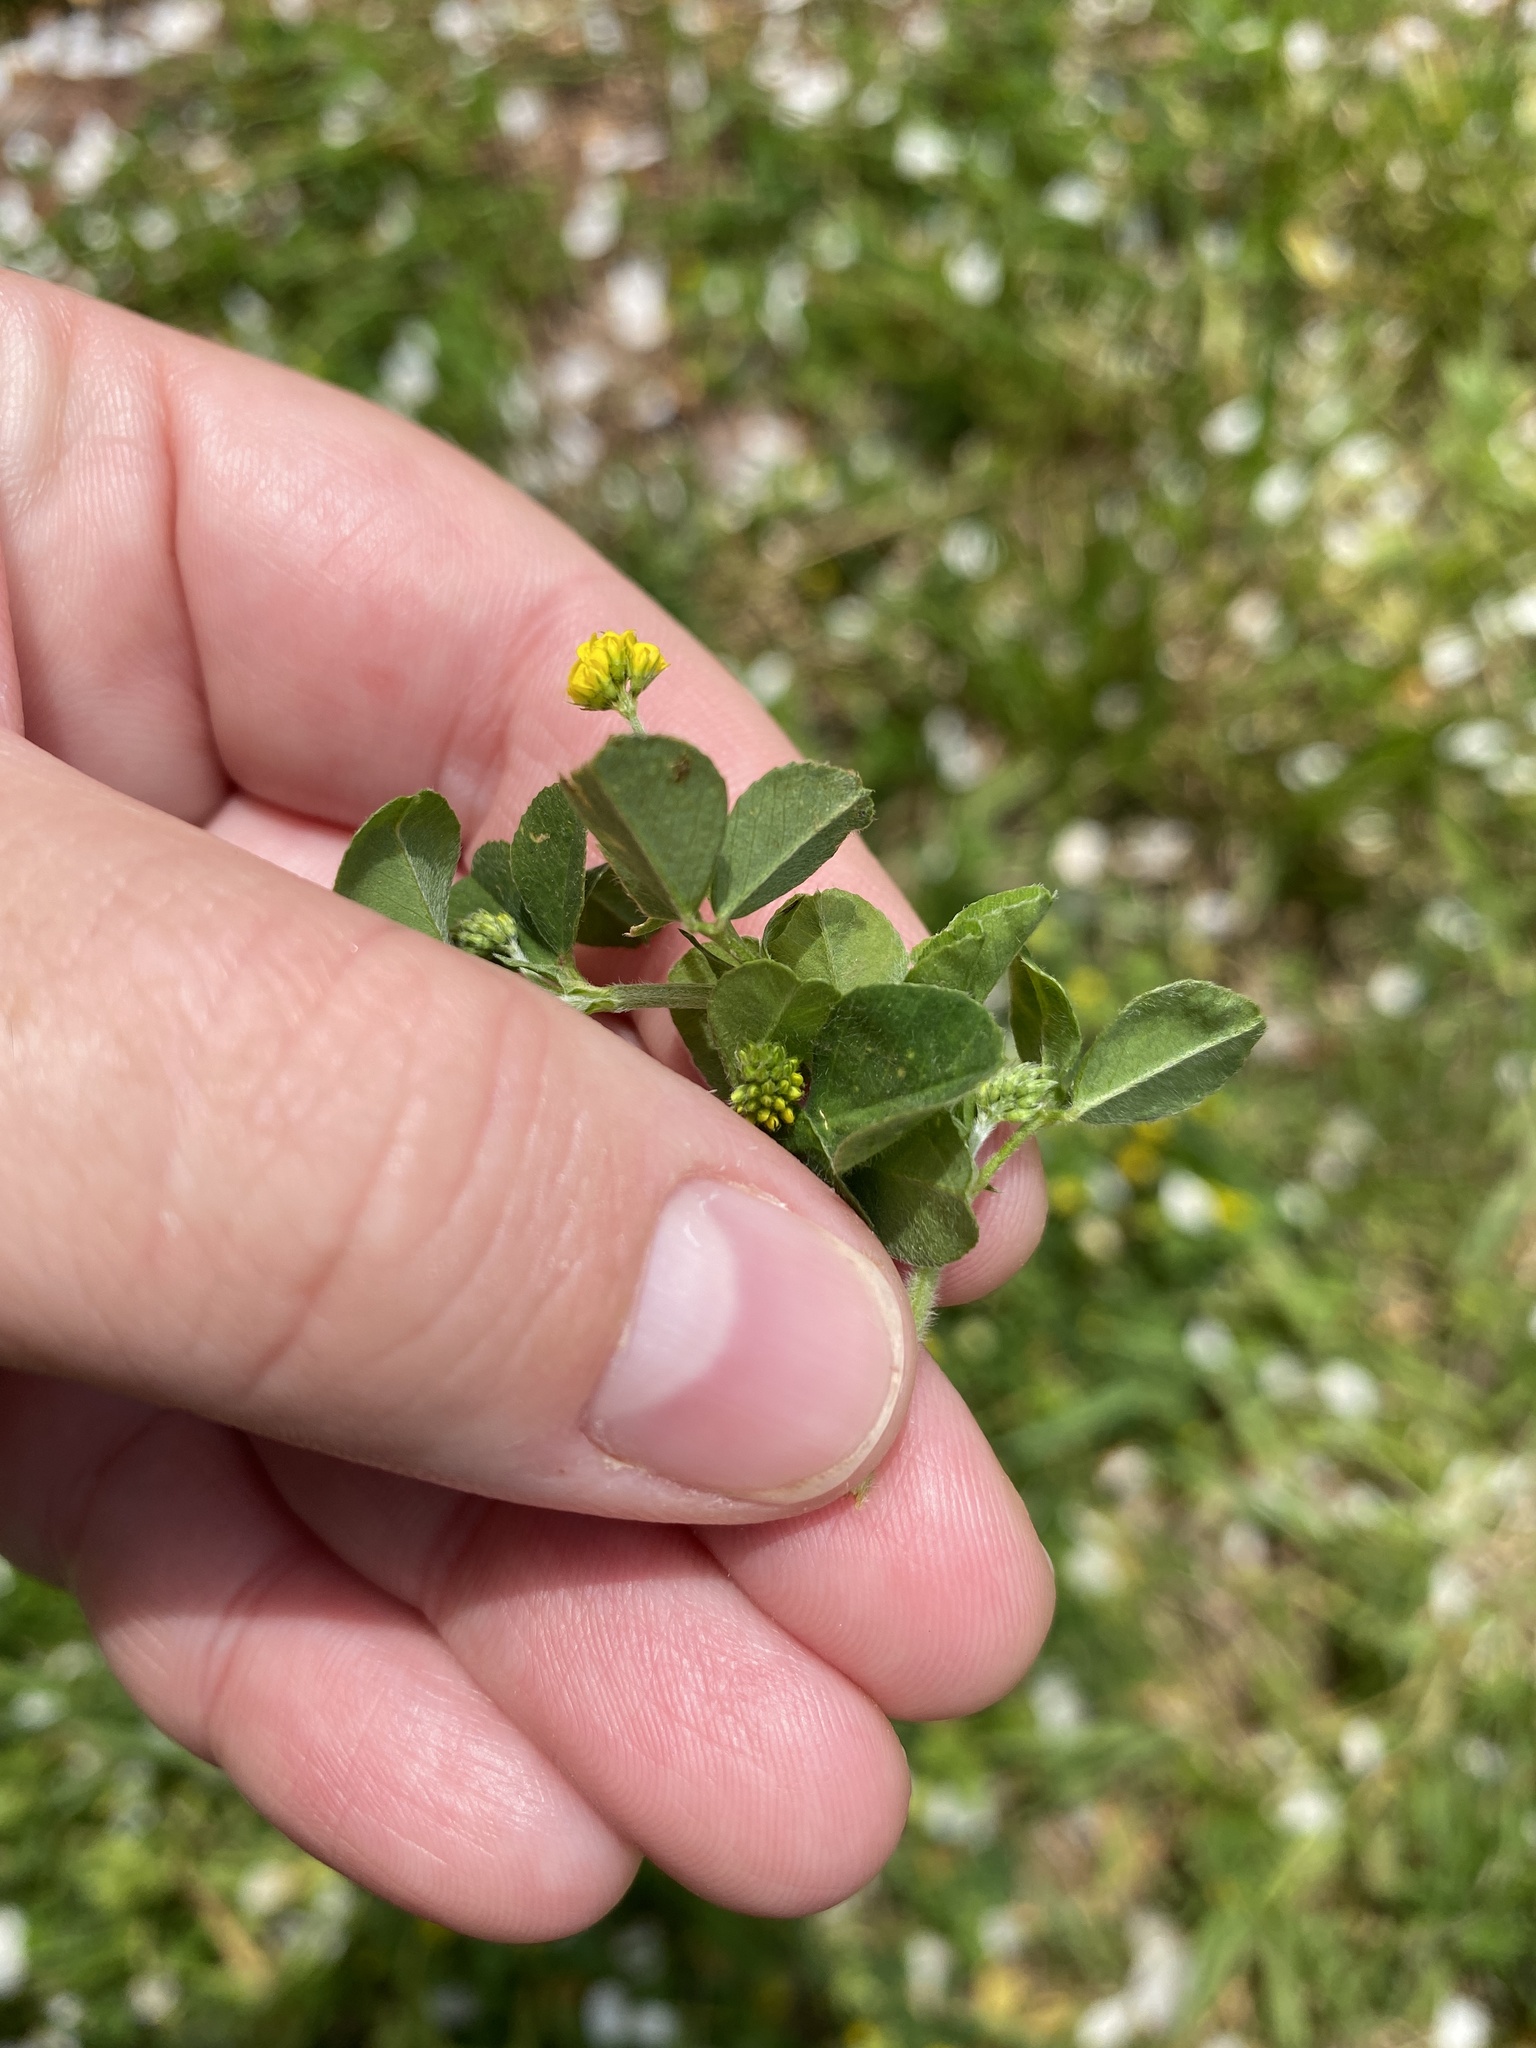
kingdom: Plantae
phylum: Tracheophyta
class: Magnoliopsida
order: Fabales
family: Fabaceae
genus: Medicago
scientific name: Medicago lupulina
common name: Black medick
